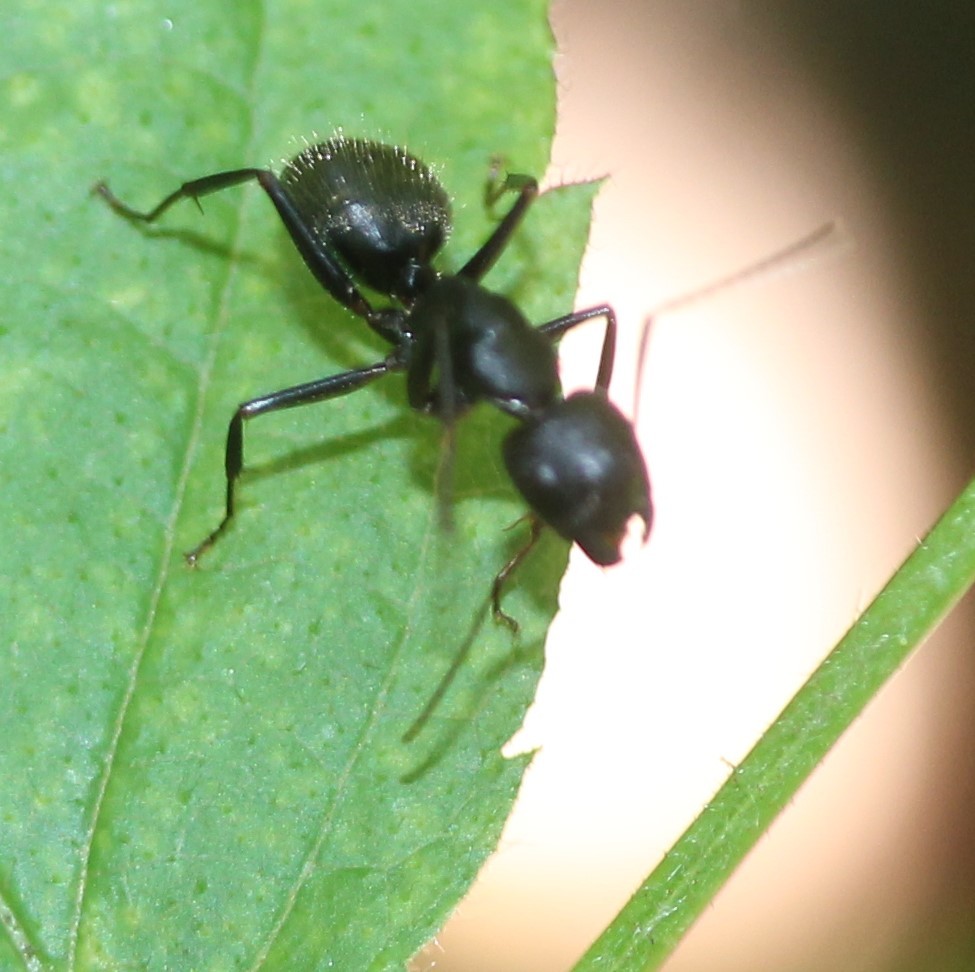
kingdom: Animalia
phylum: Arthropoda
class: Insecta
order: Hymenoptera
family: Formicidae
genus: Camponotus
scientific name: Camponotus pennsylvanicus
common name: Black carpenter ant
